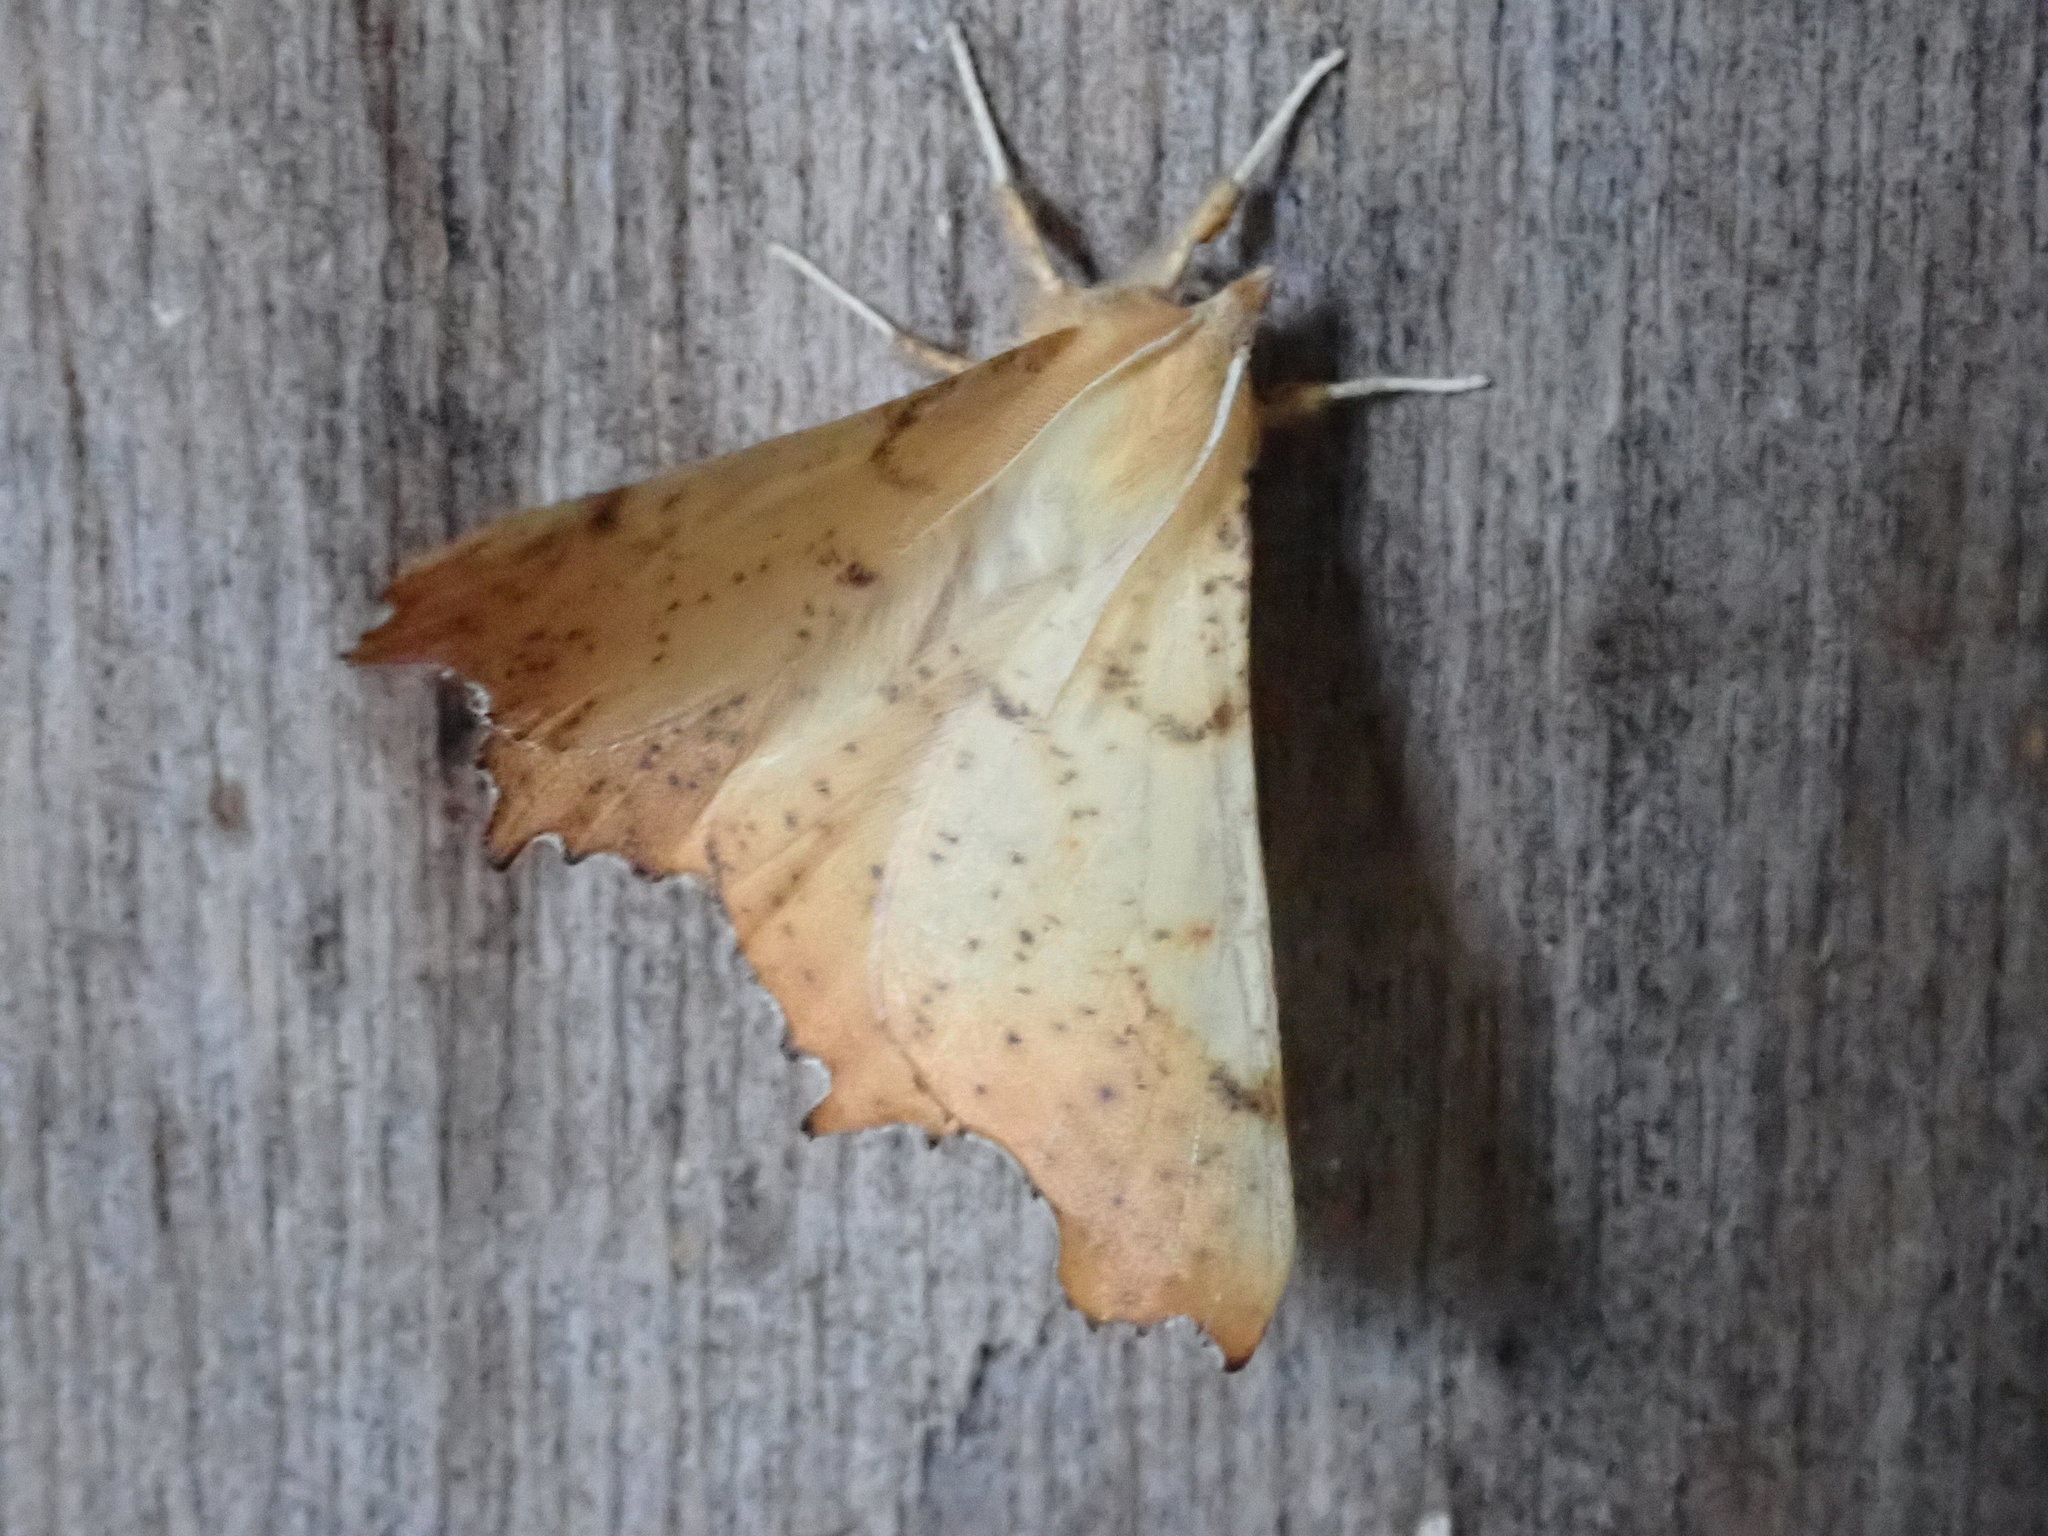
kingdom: Animalia
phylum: Arthropoda
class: Insecta
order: Lepidoptera
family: Geometridae
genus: Ennomos
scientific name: Ennomos magnaria
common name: Maple spanworm
